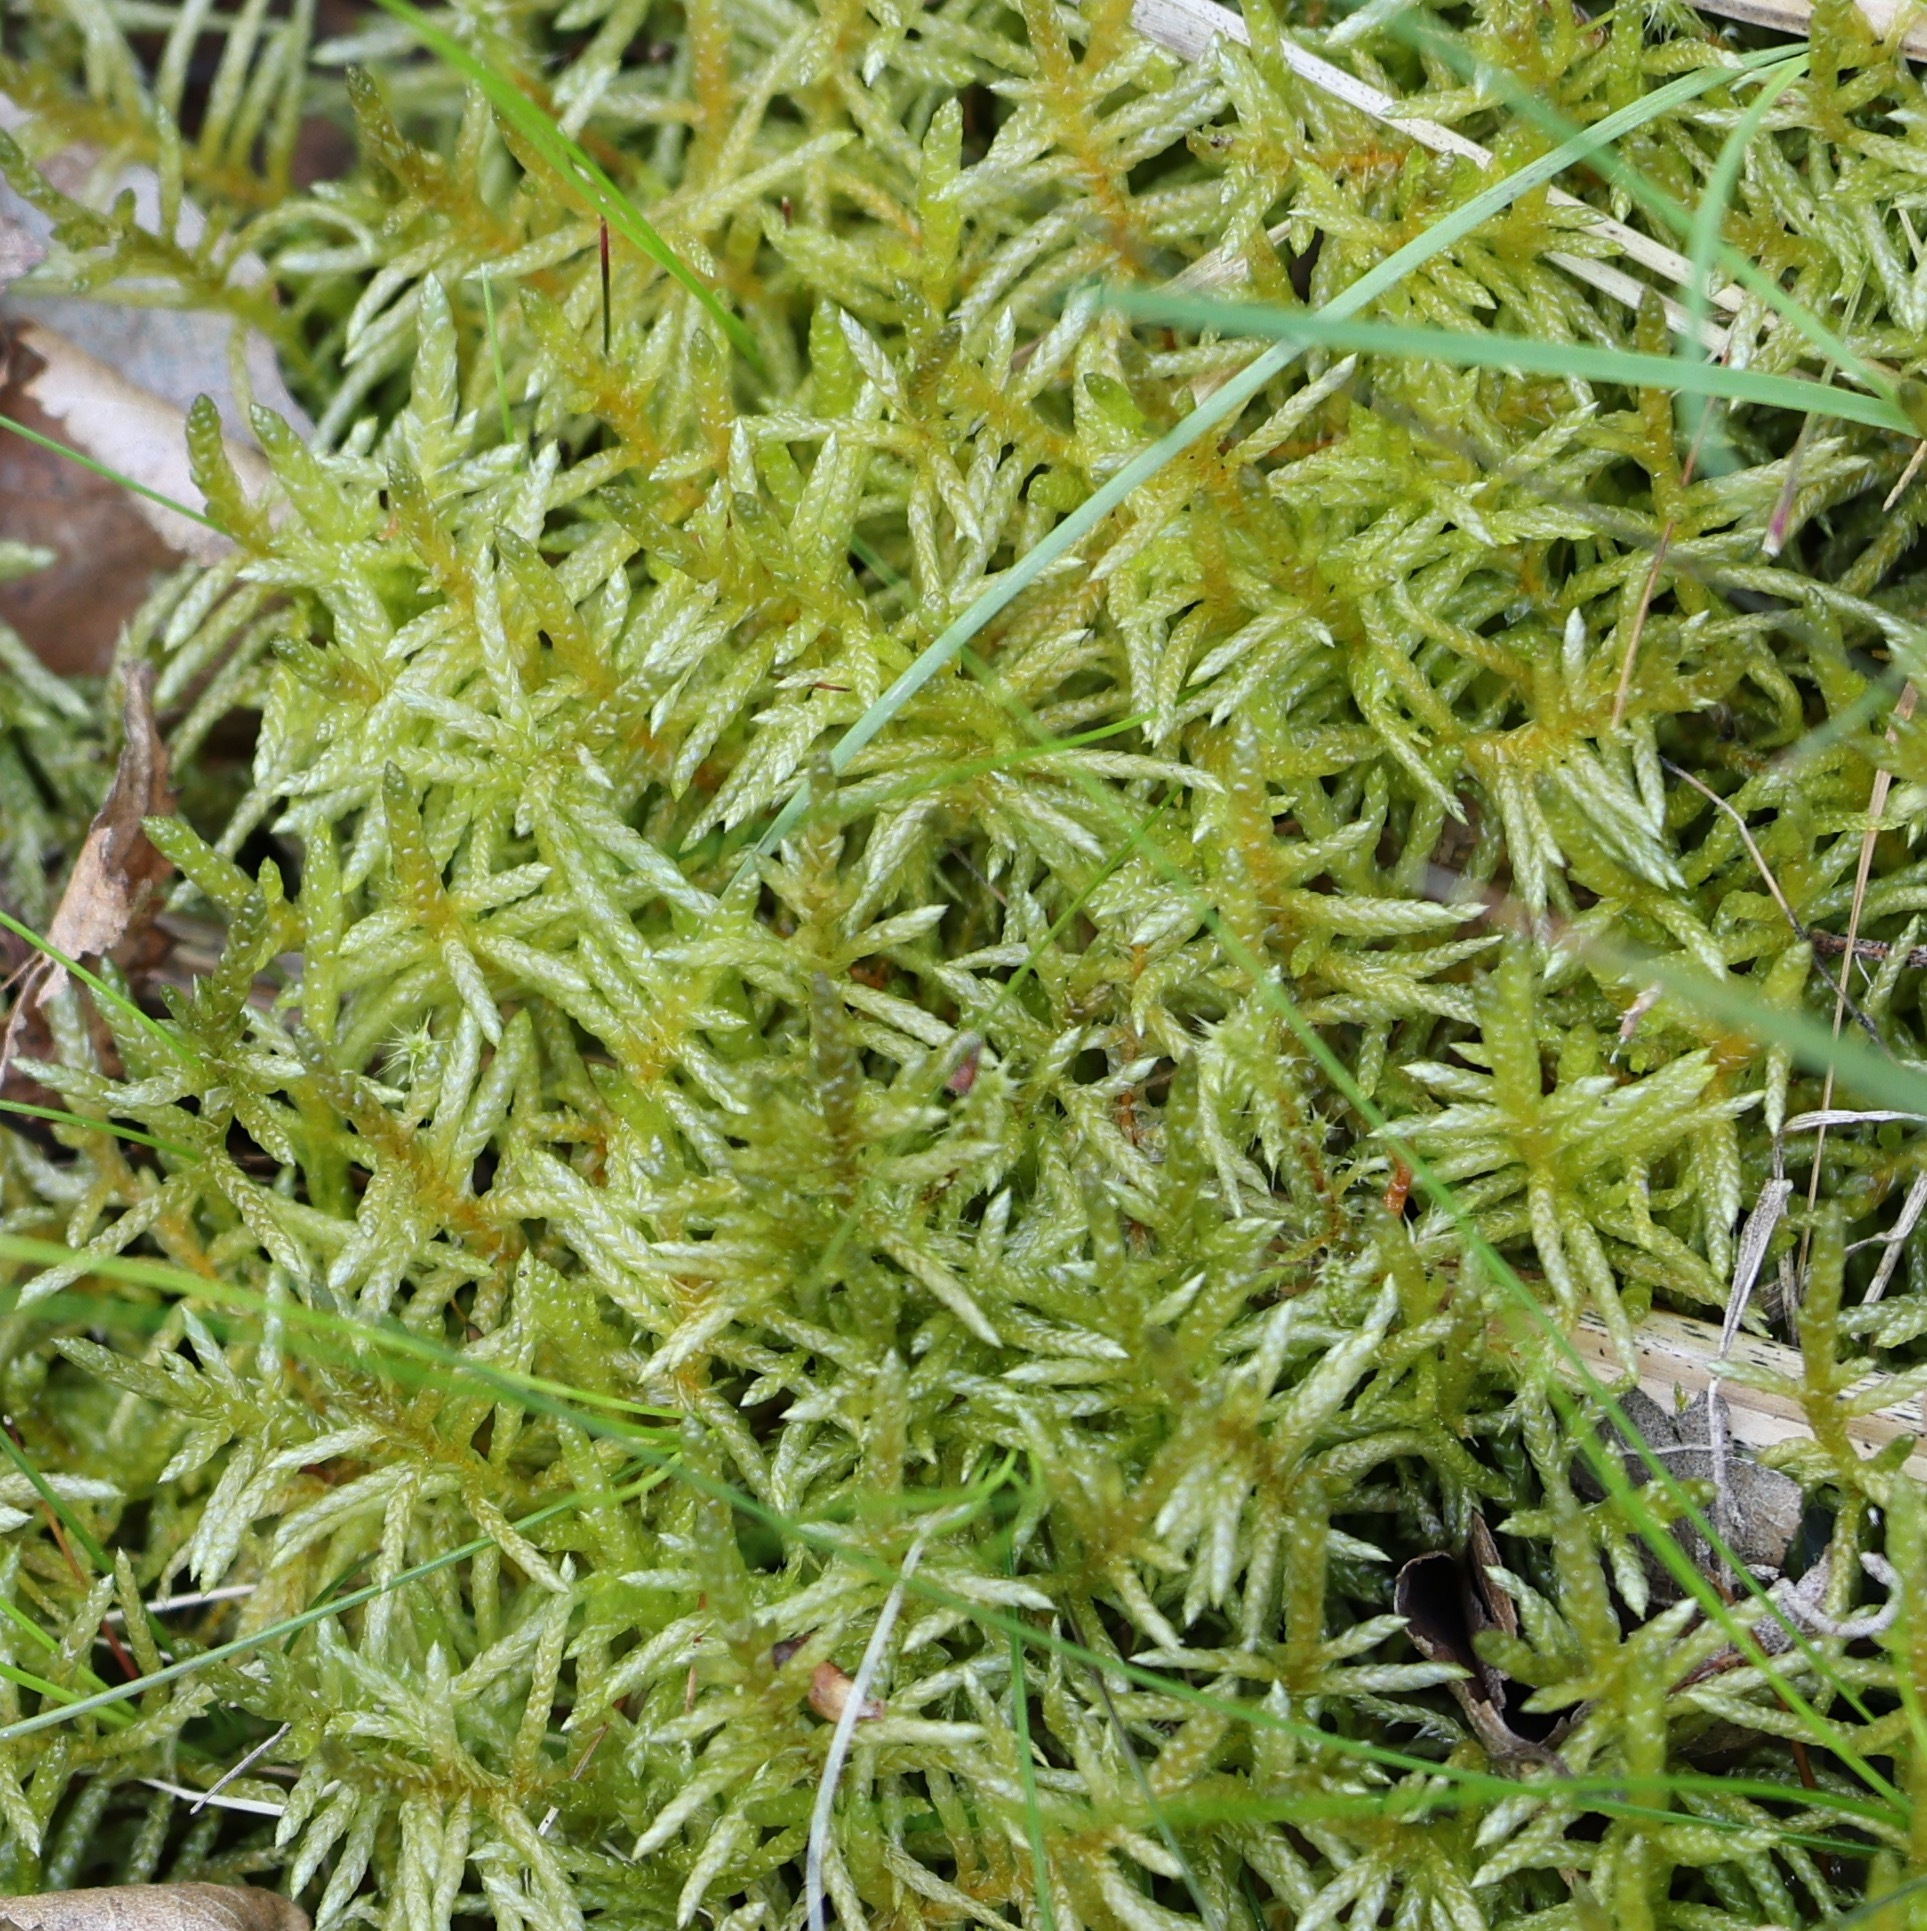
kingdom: Plantae
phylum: Bryophyta
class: Bryopsida
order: Hypnales
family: Brachytheciaceae
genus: Pseudoscleropodium
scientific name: Pseudoscleropodium purum
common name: Neat feather-moss
